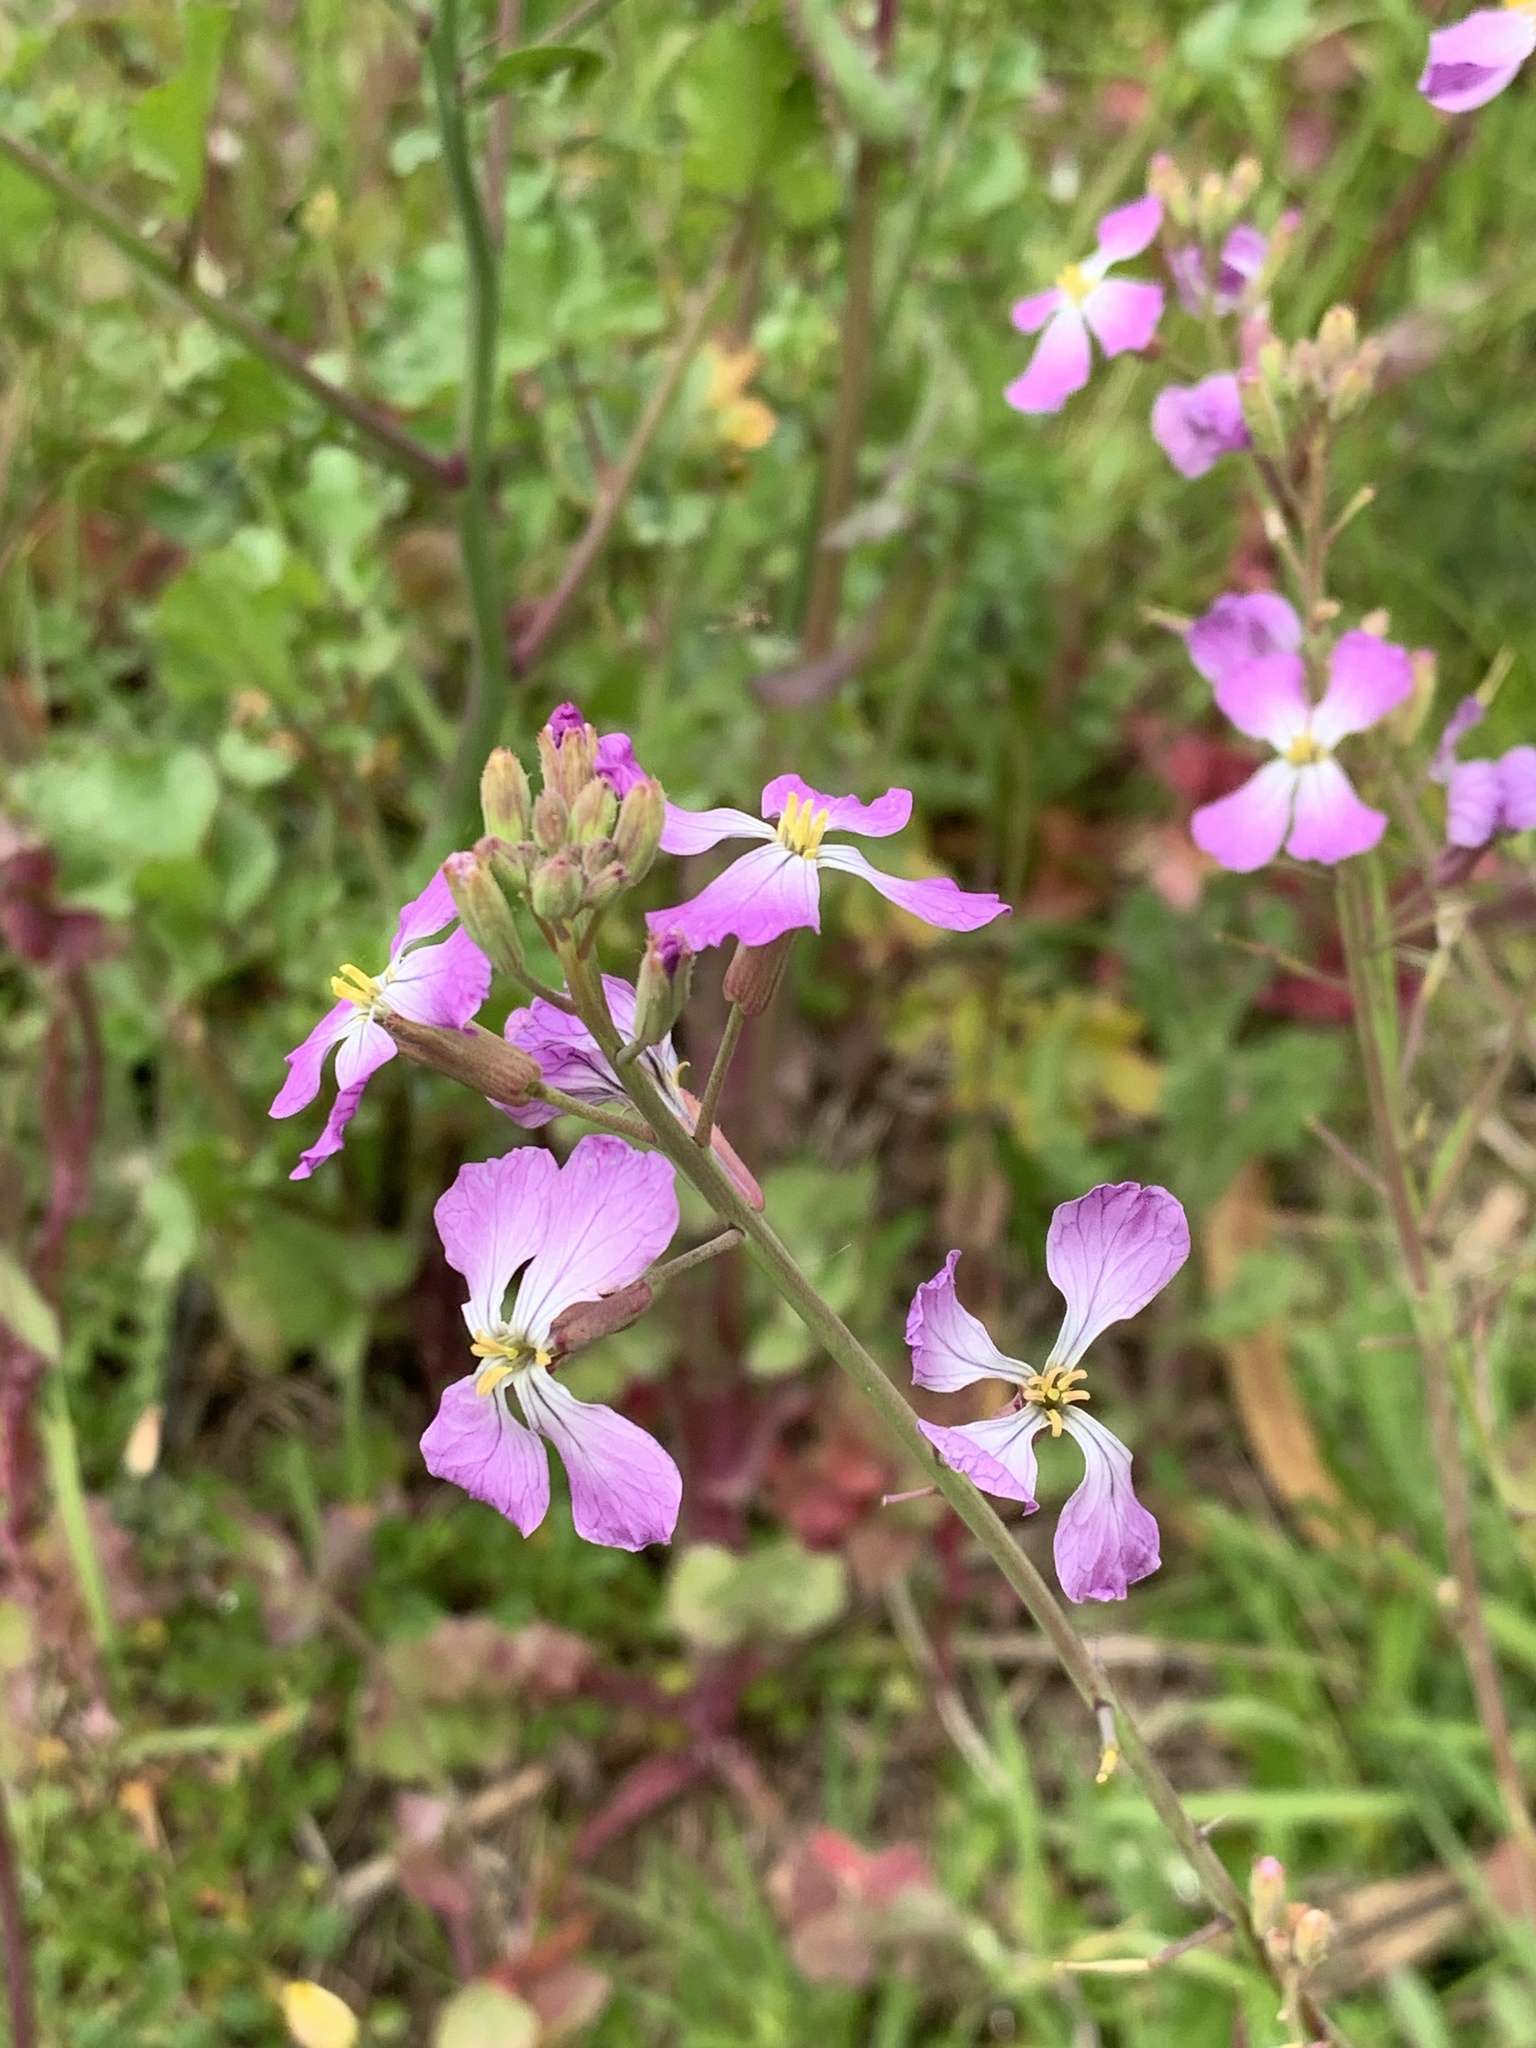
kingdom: Plantae
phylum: Tracheophyta
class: Magnoliopsida
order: Brassicales
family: Brassicaceae
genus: Raphanus
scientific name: Raphanus sativus
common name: Cultivated radish
